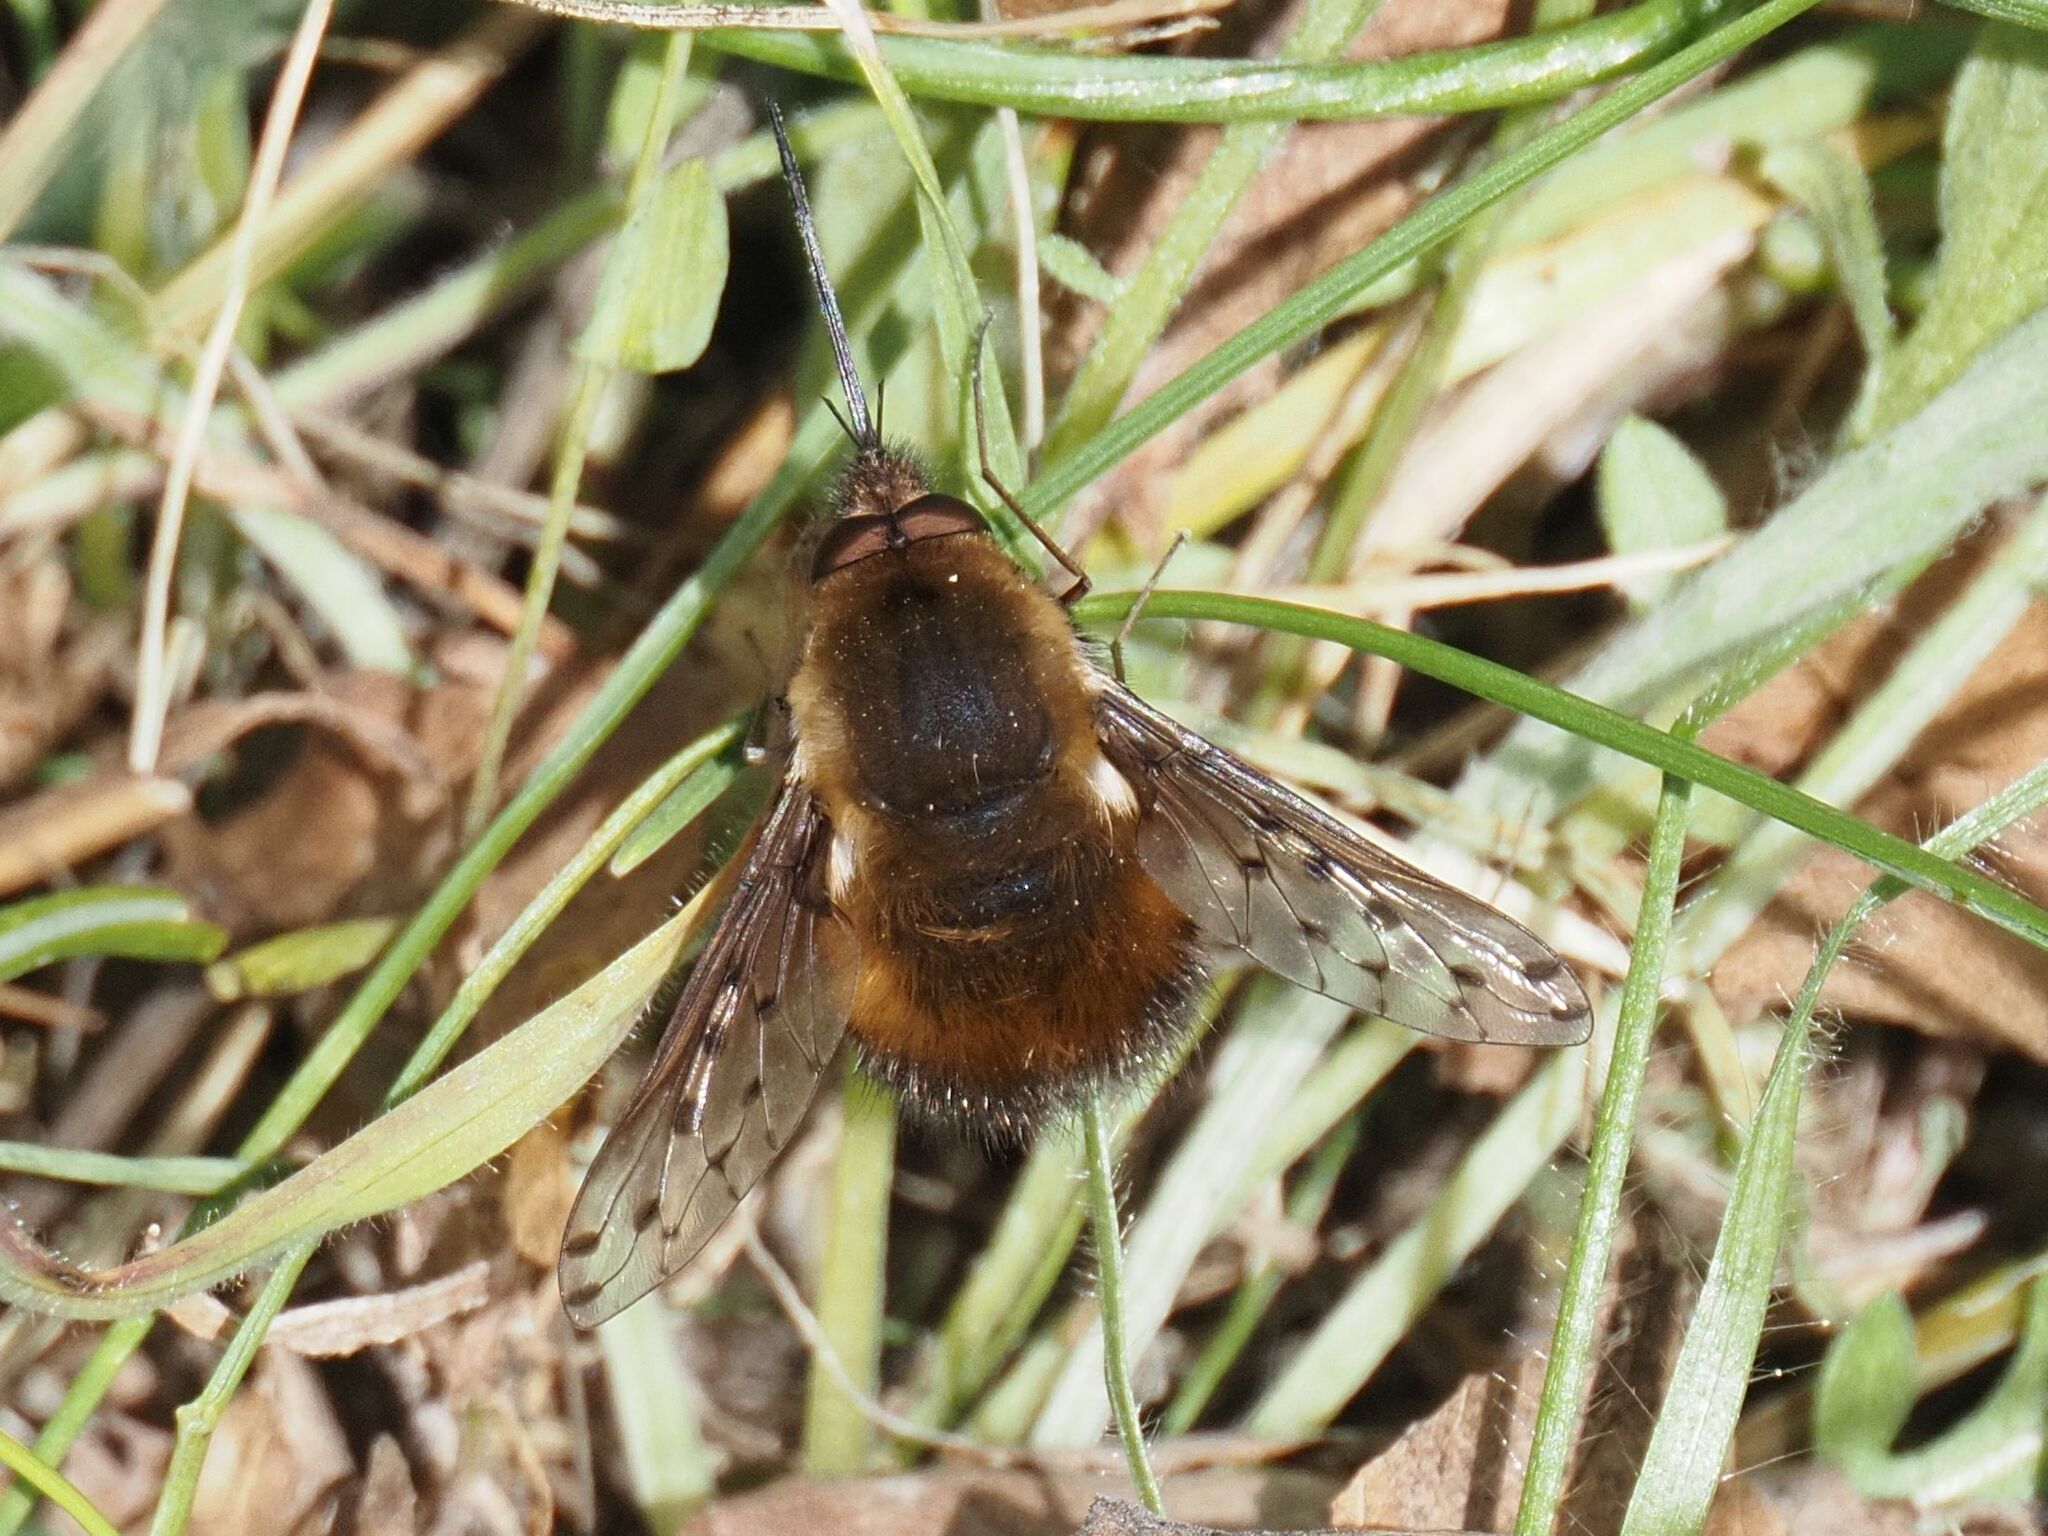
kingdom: Animalia
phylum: Arthropoda
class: Insecta
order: Diptera
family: Bombyliidae
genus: Bombylius
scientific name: Bombylius discolor
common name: Dotted bee-fly
